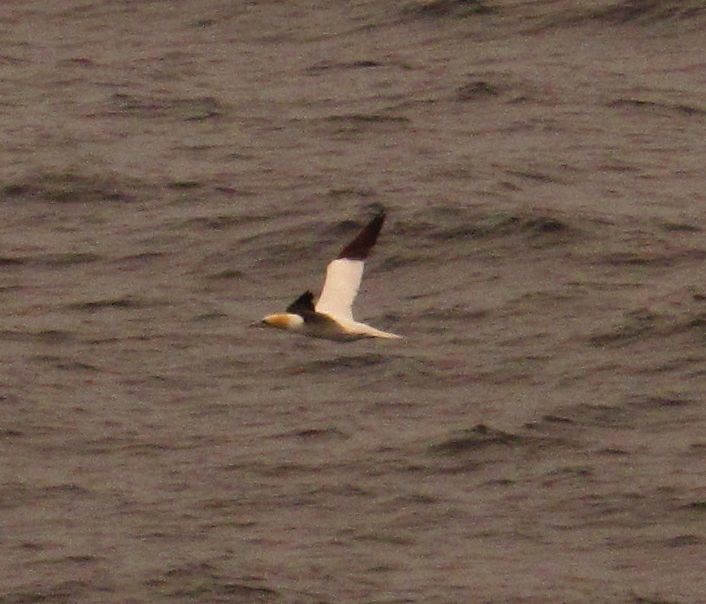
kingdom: Animalia
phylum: Chordata
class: Aves
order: Suliformes
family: Sulidae
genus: Morus
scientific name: Morus bassanus
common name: Northern gannet
